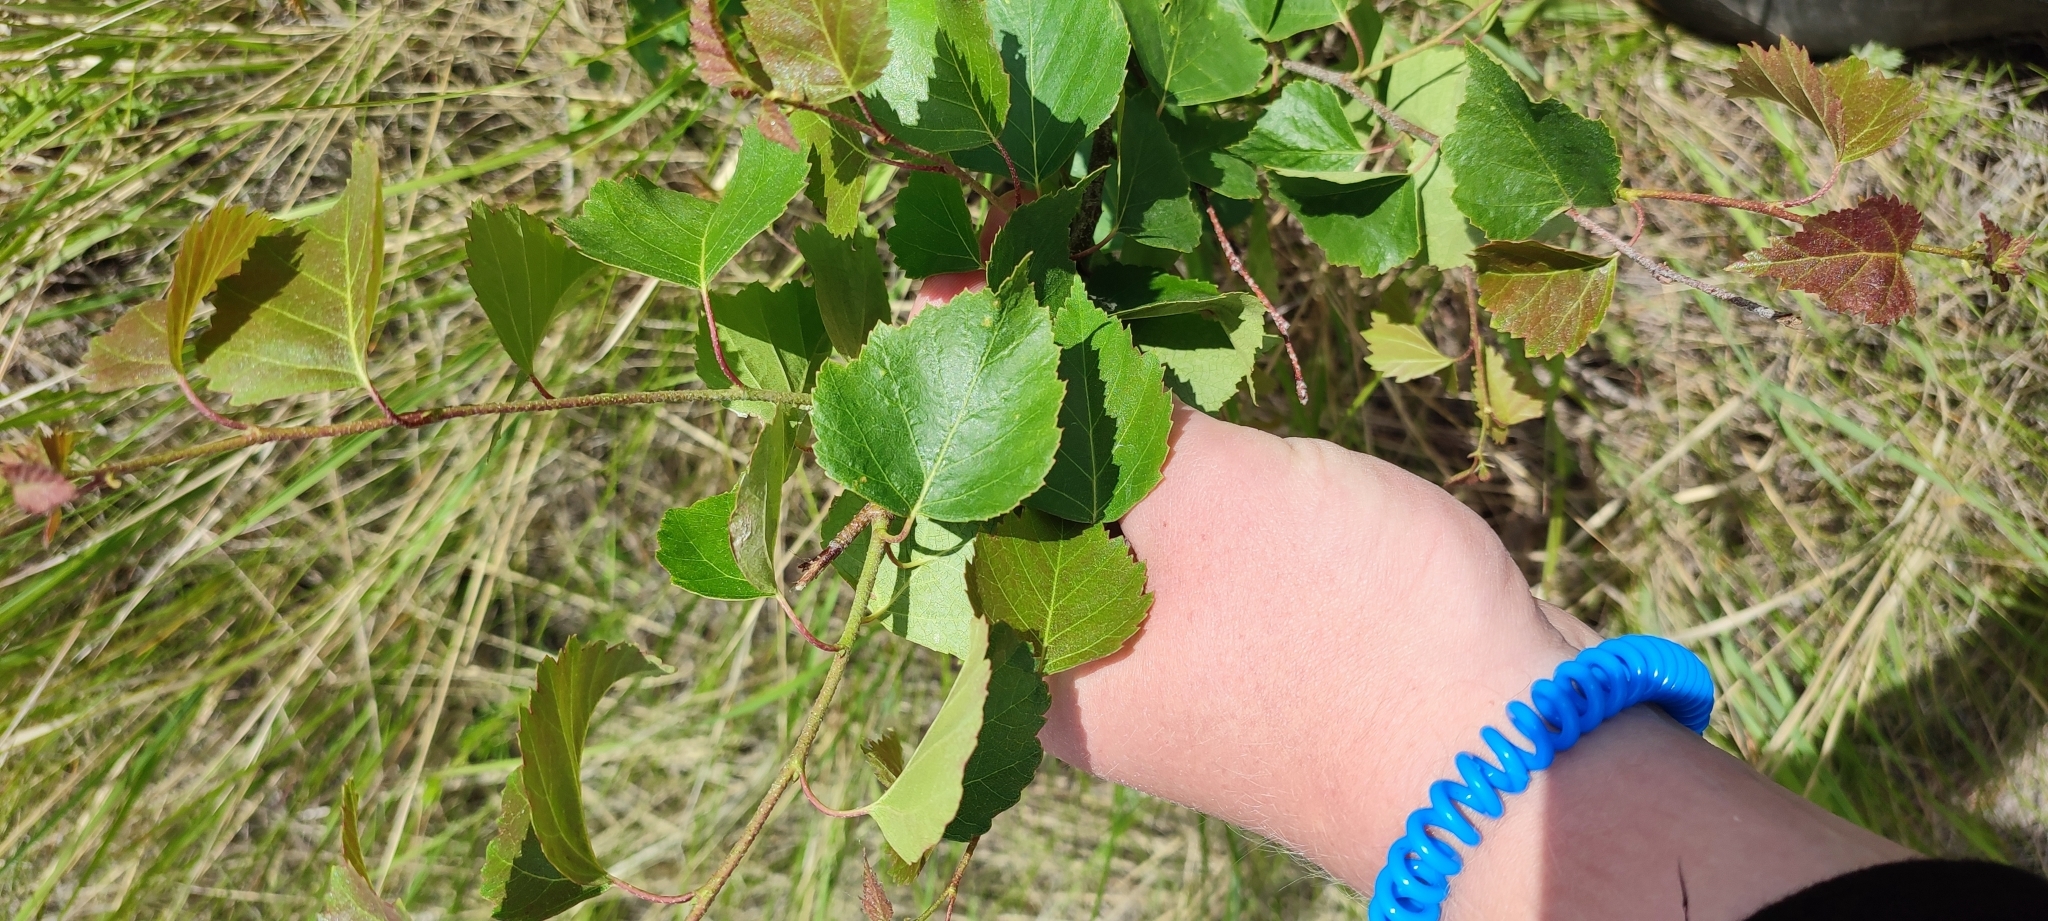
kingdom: Plantae
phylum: Tracheophyta
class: Magnoliopsida
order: Fagales
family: Betulaceae
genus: Betula
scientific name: Betula pendula
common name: Silver birch
